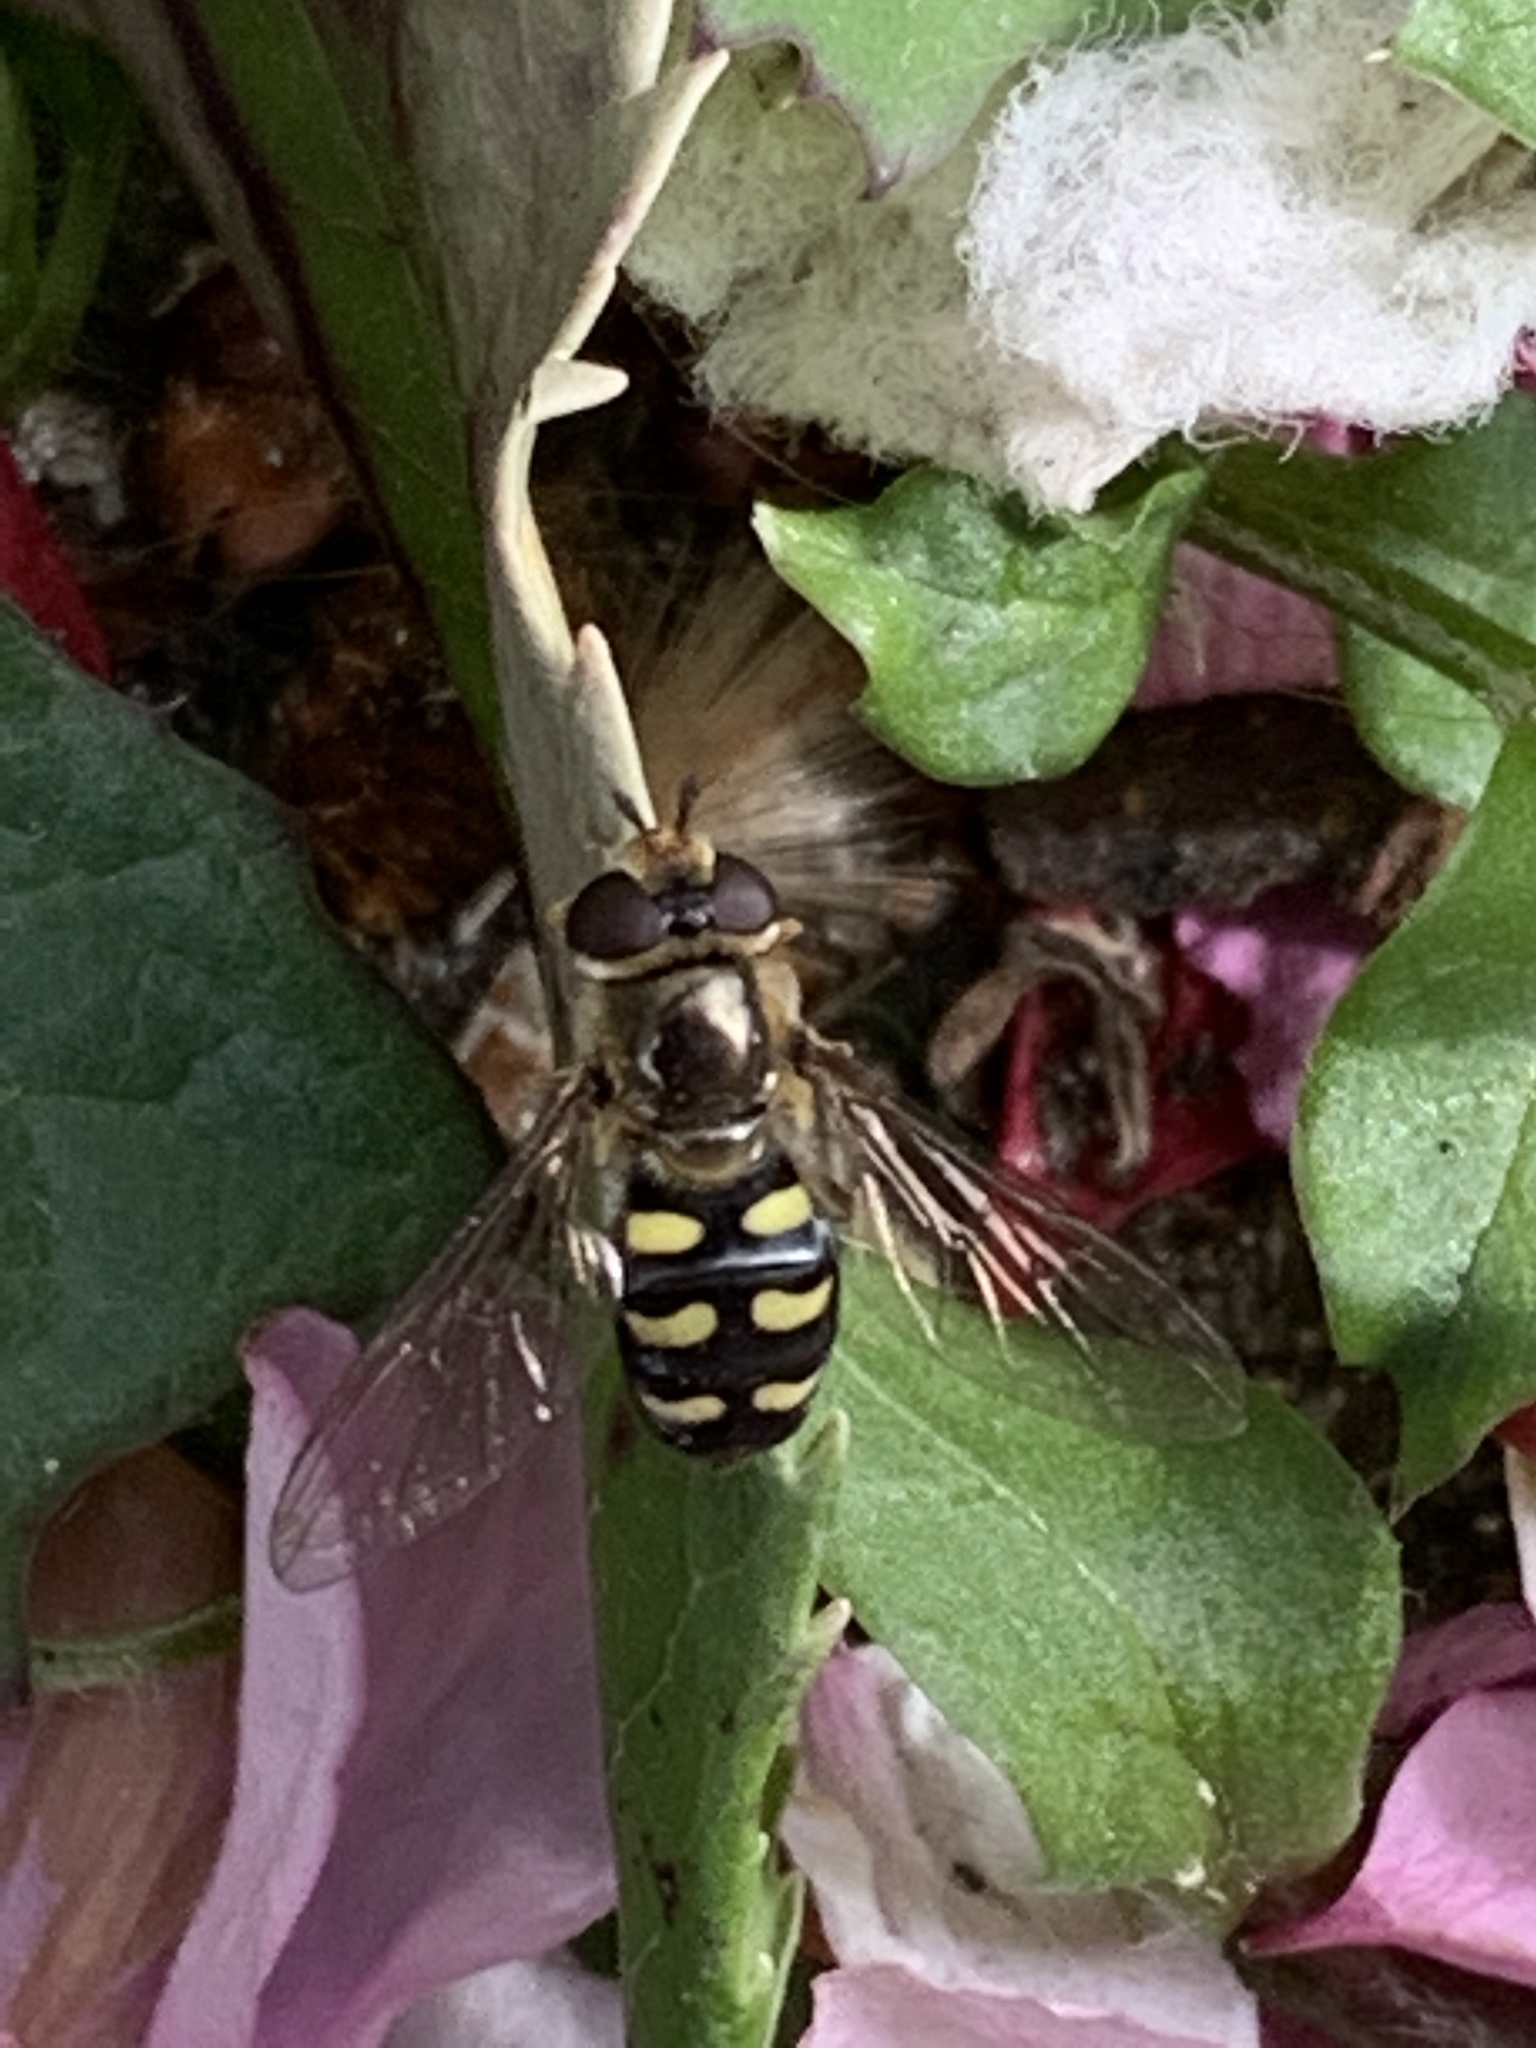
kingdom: Animalia
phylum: Arthropoda
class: Insecta
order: Diptera
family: Syrphidae
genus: Eupeodes
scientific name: Eupeodes luniger
